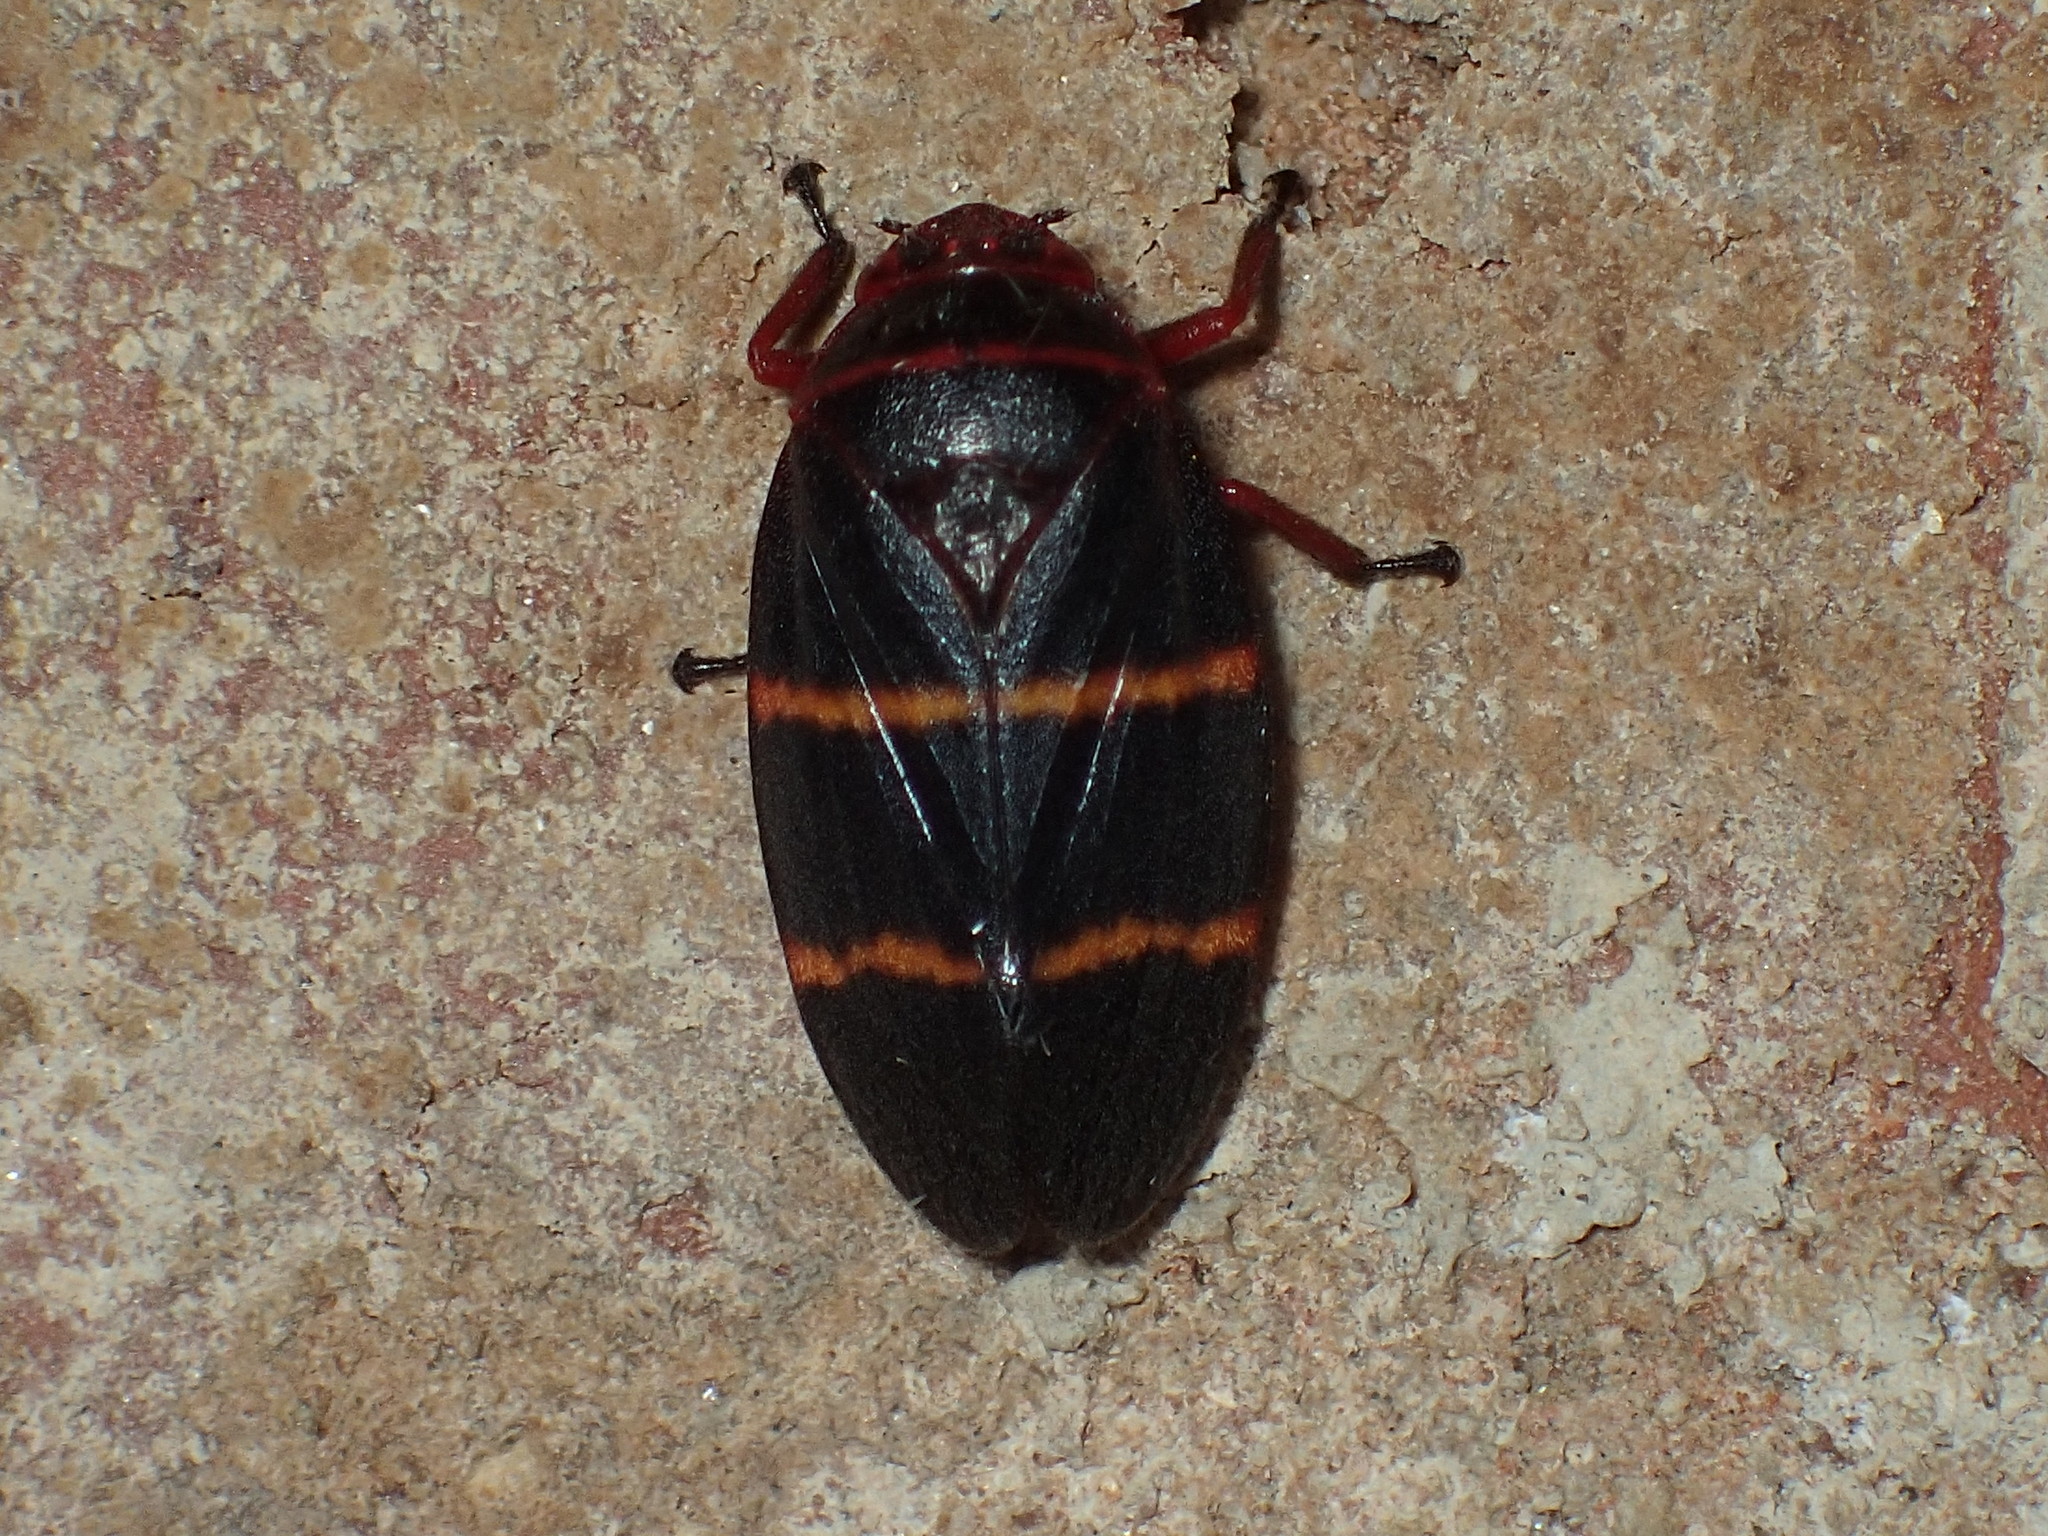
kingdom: Animalia
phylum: Arthropoda
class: Insecta
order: Hemiptera
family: Cercopidae
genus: Prosapia
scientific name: Prosapia bicincta
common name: Twolined spittlebug
